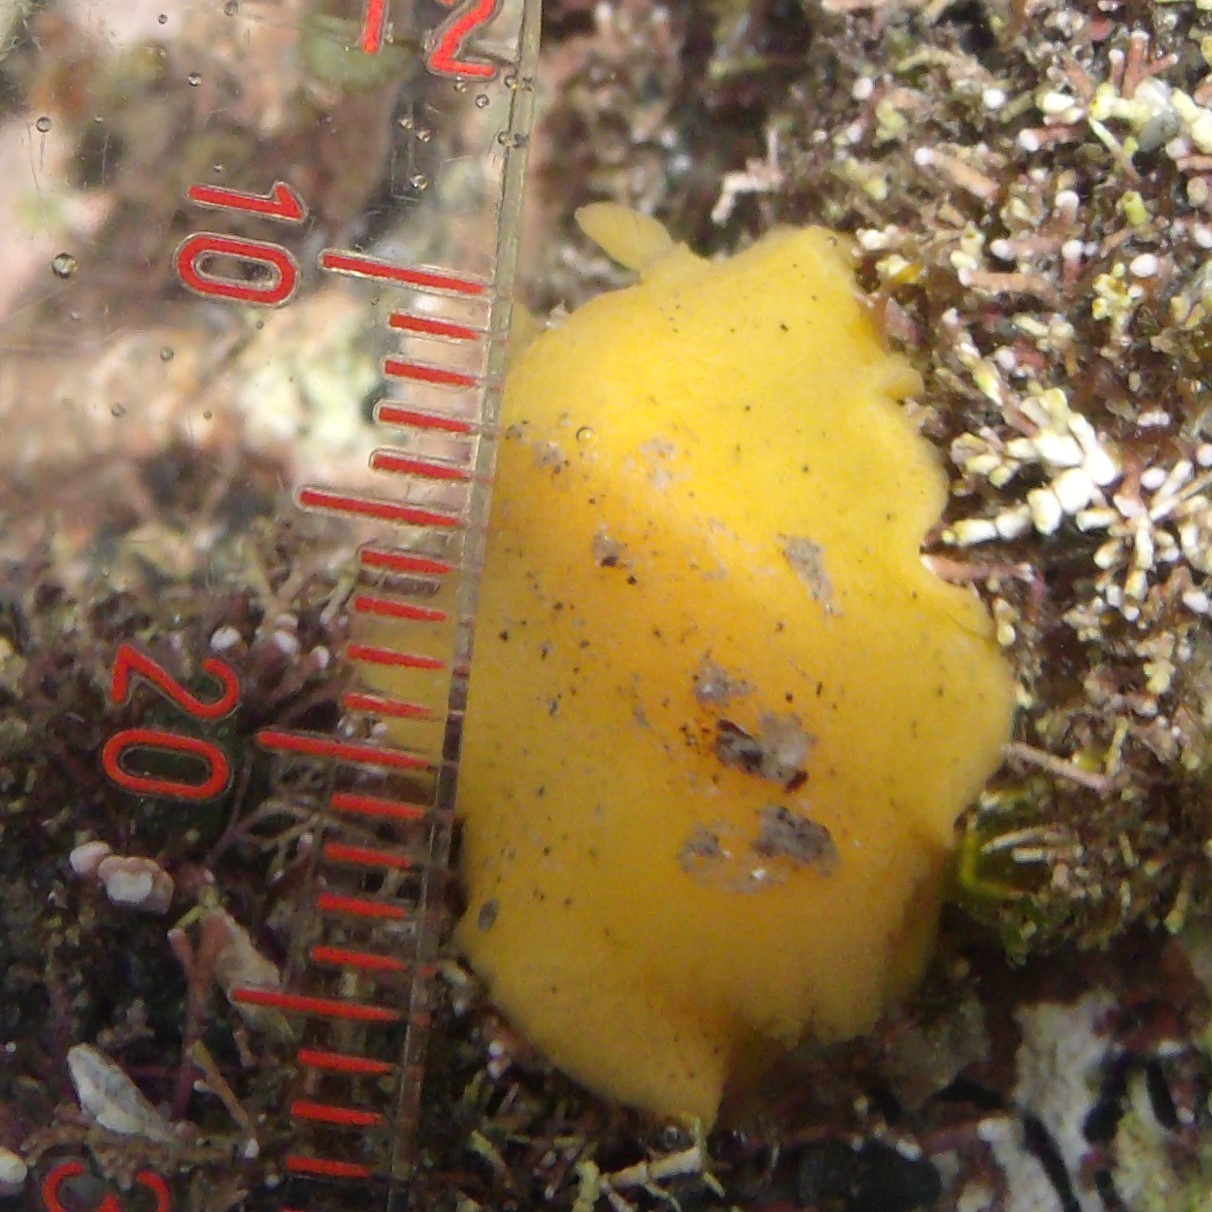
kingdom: Animalia
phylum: Mollusca
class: Gastropoda
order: Nudibranchia
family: Dorididae
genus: Doriopsis
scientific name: Doriopsis granulosa
